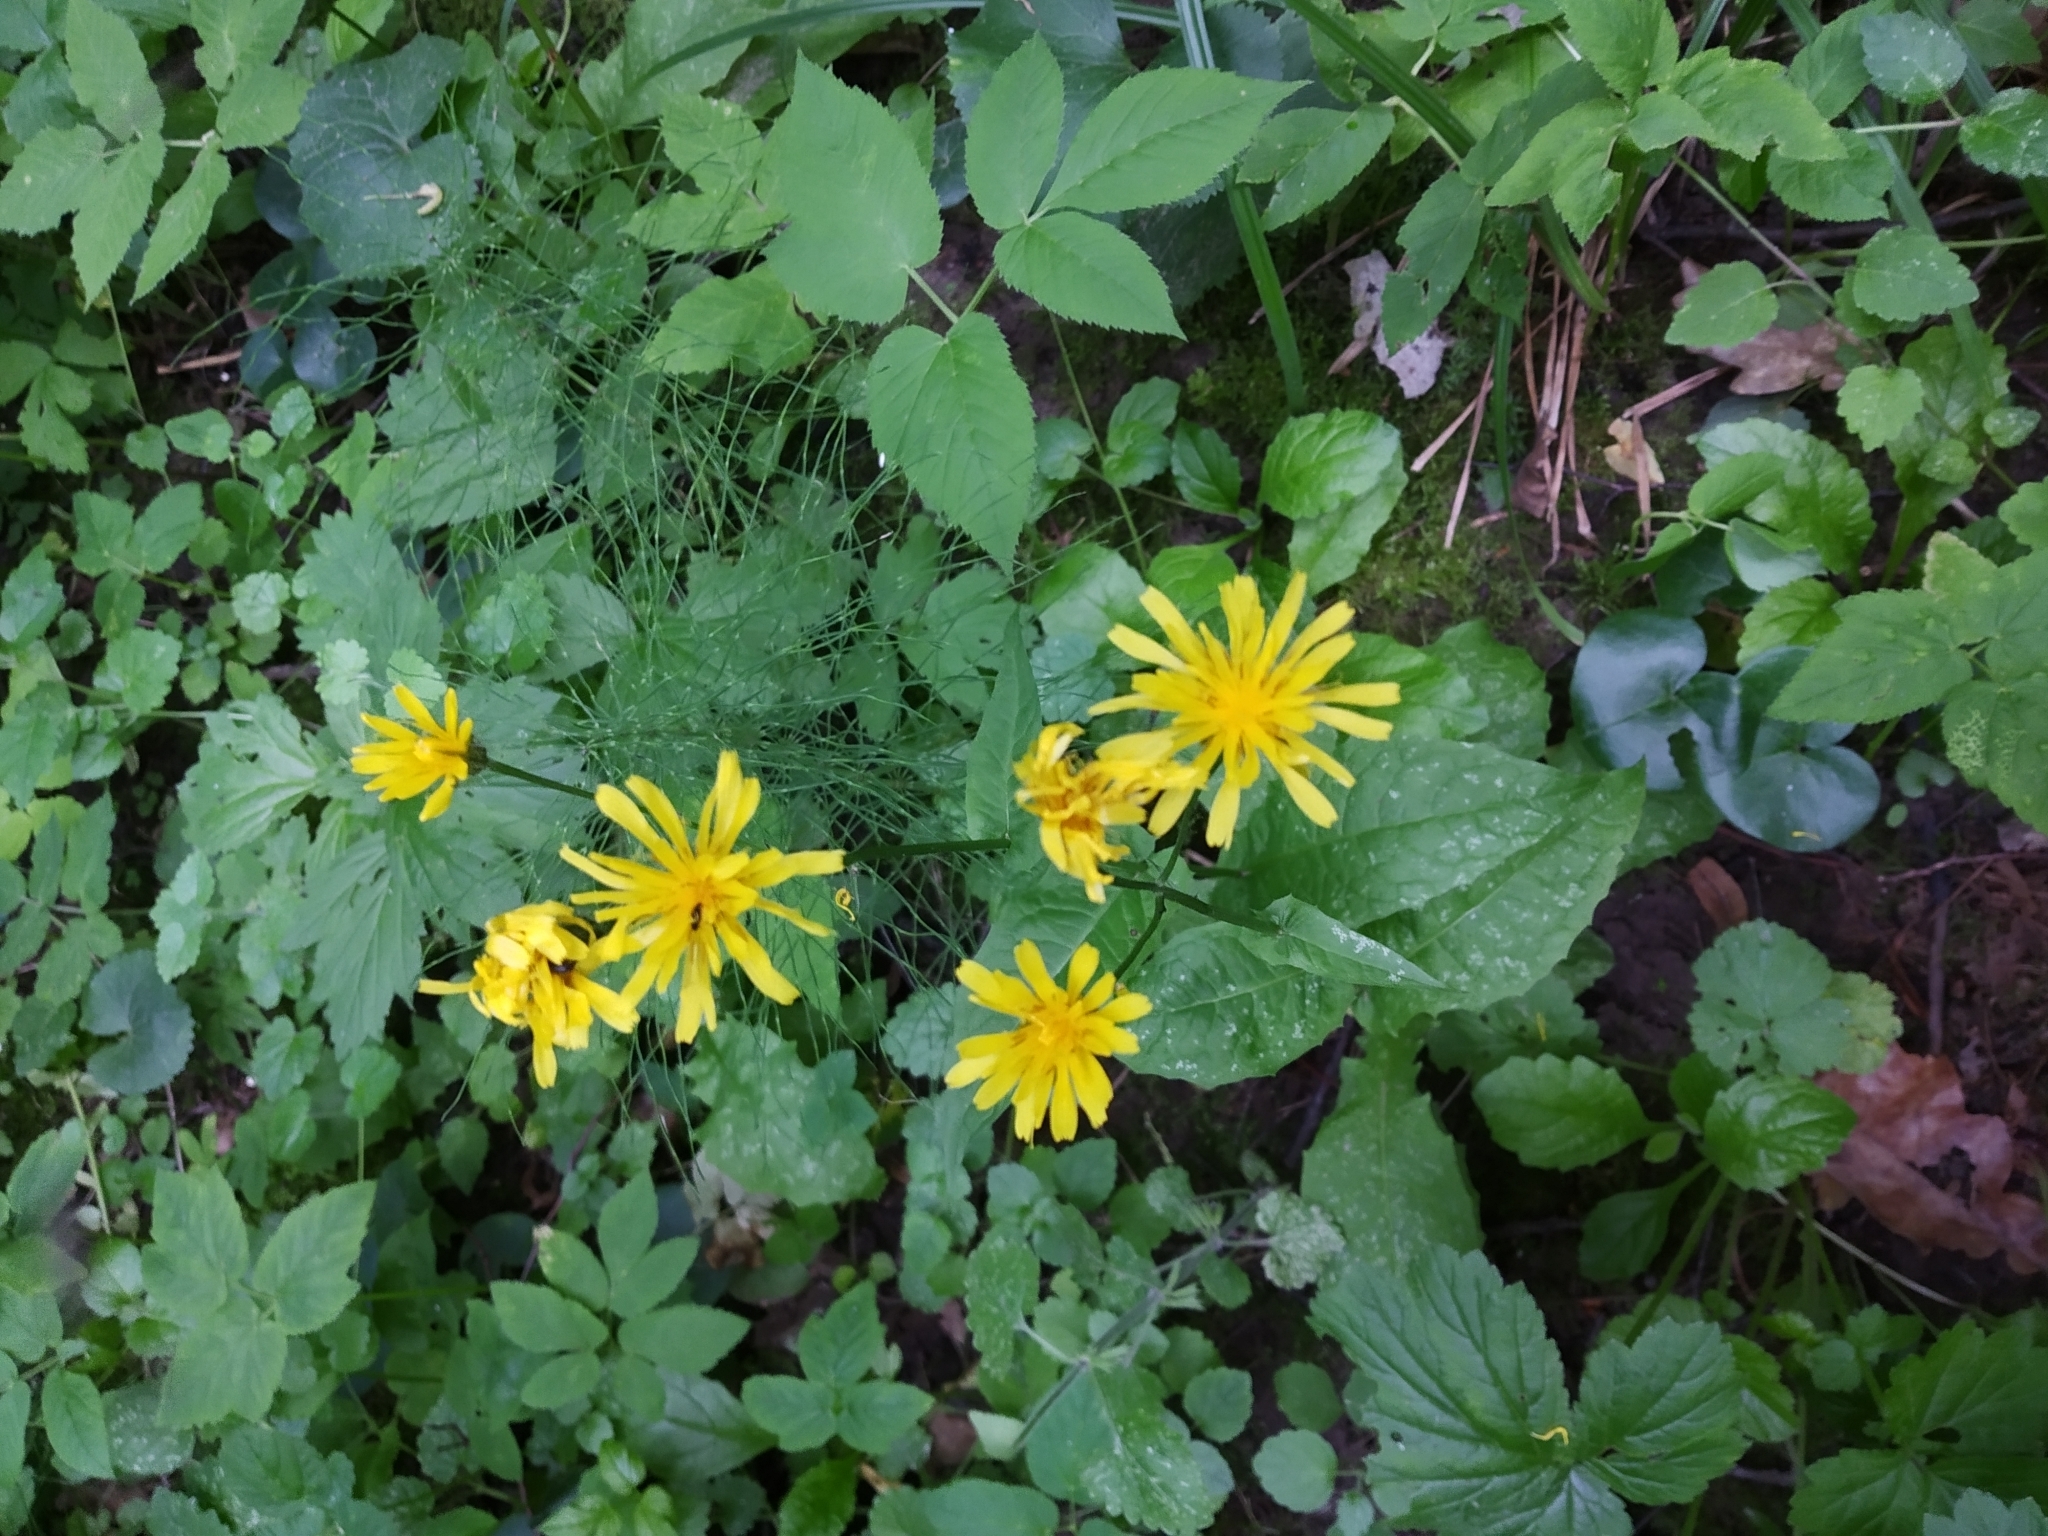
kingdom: Plantae
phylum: Tracheophyta
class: Magnoliopsida
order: Asterales
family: Asteraceae
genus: Crepis
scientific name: Crepis paludosa
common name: Marsh hawk's-beard
